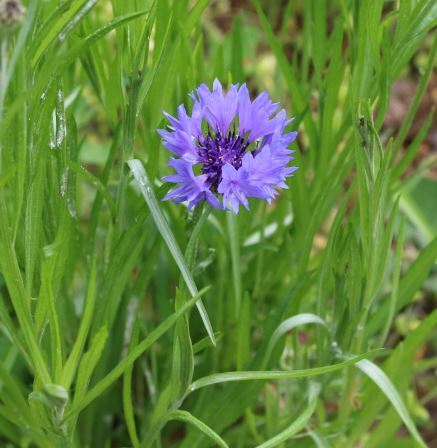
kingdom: Plantae
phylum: Tracheophyta
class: Magnoliopsida
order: Asterales
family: Asteraceae
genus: Centaurea
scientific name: Centaurea cyanus
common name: Cornflower
